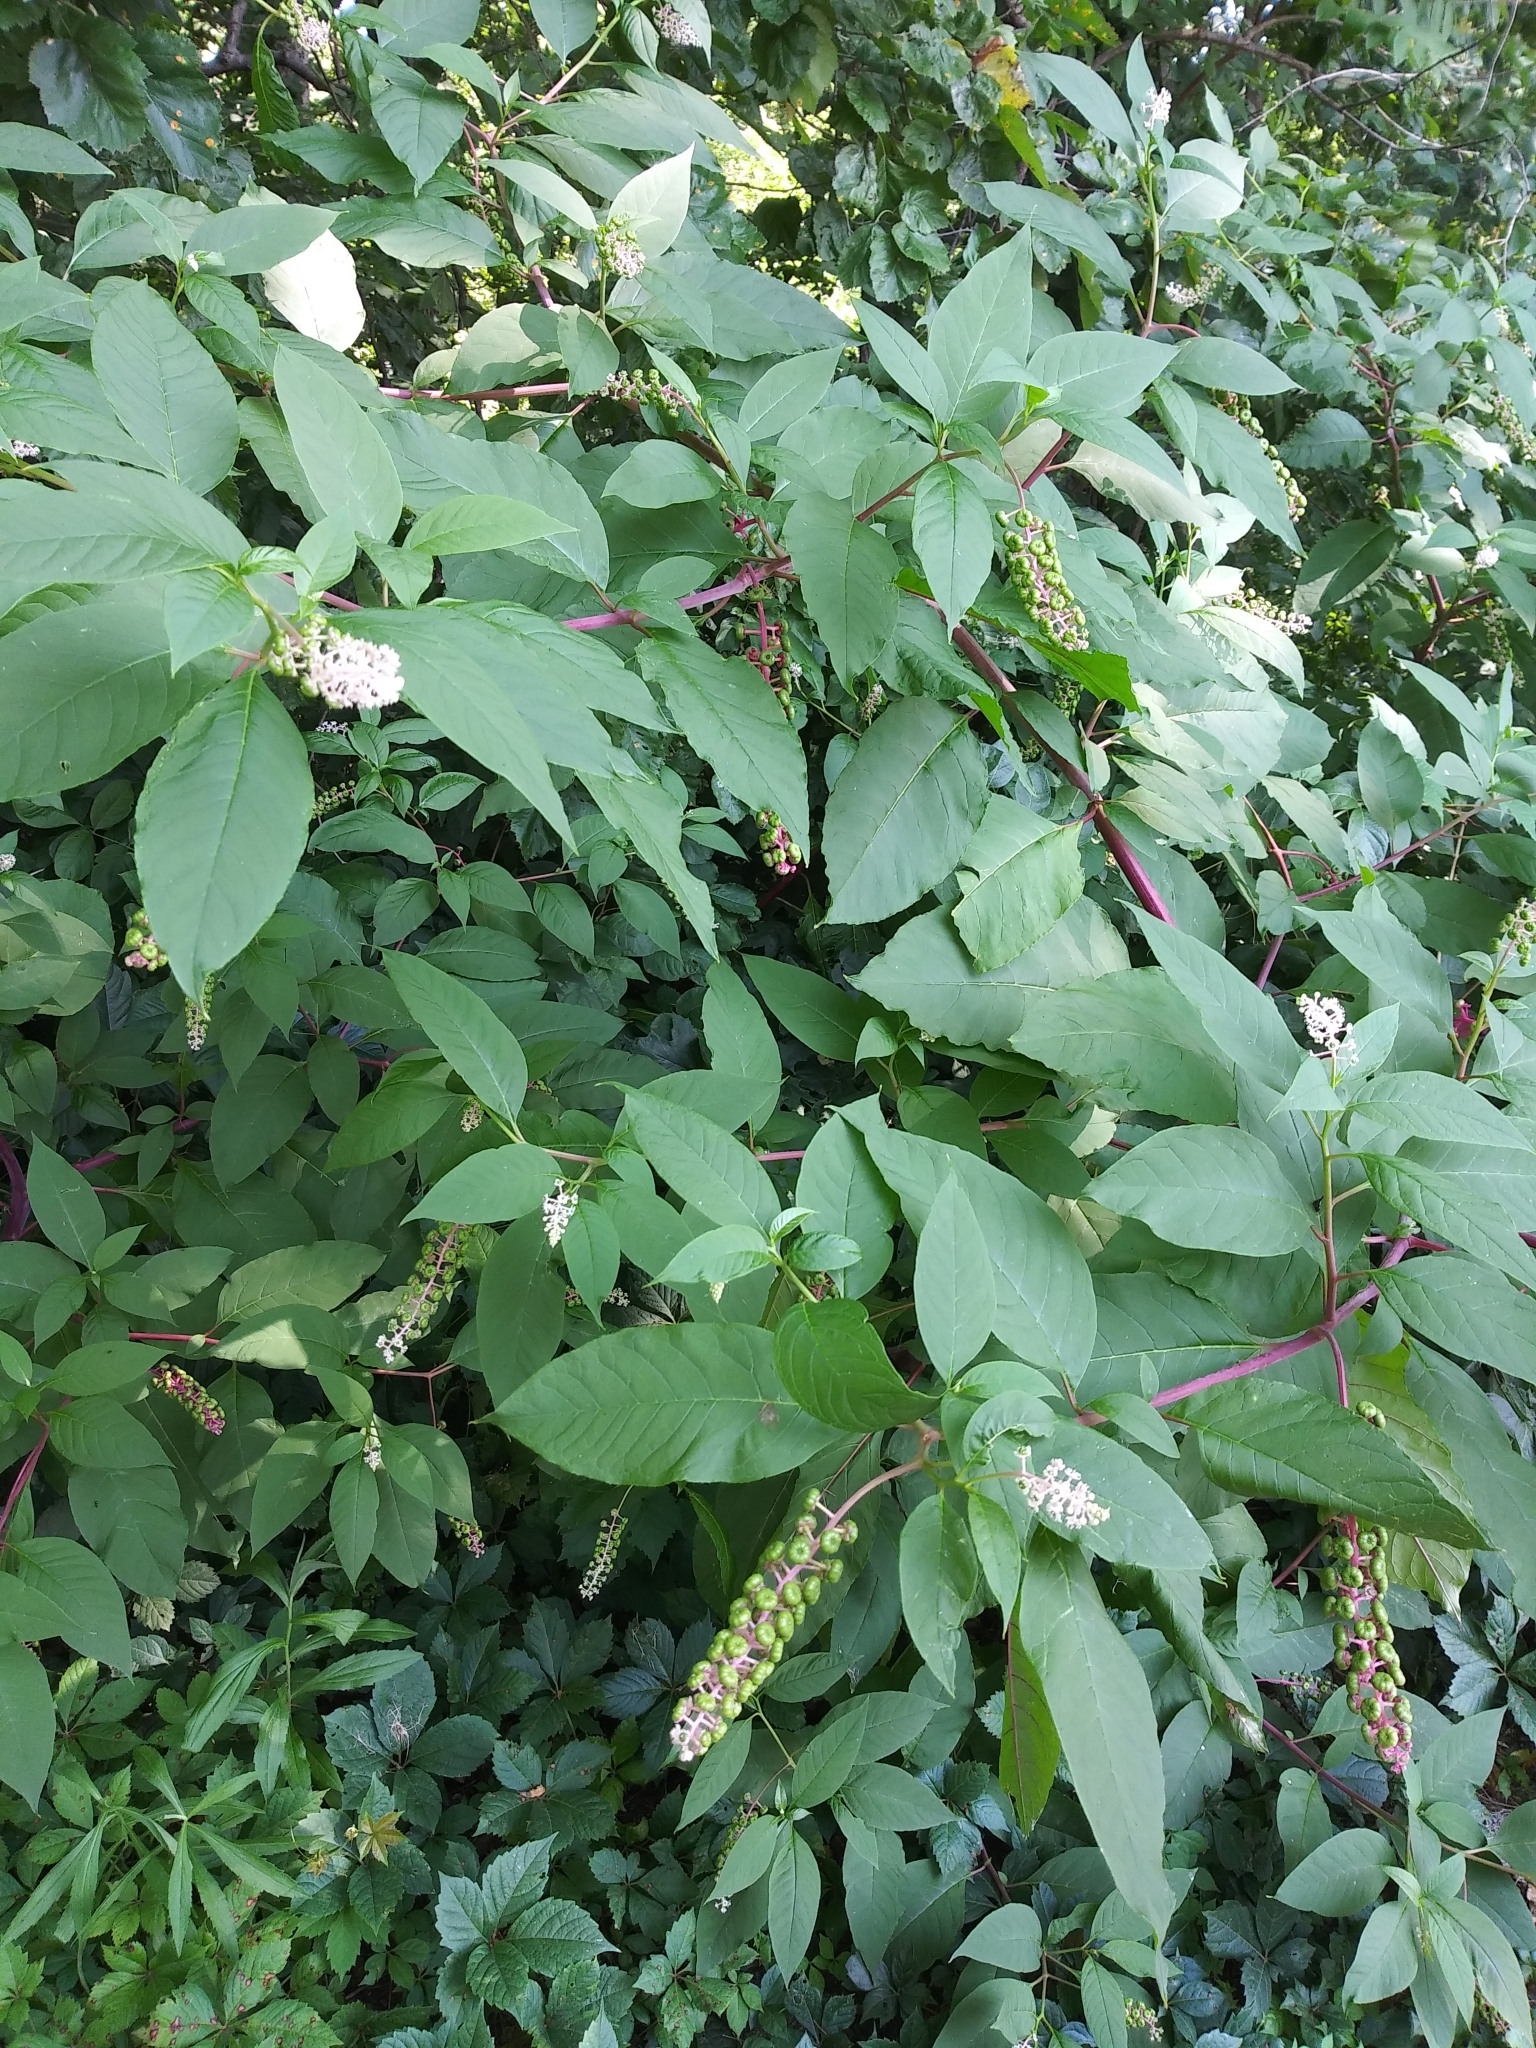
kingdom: Plantae
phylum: Tracheophyta
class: Magnoliopsida
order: Caryophyllales
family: Phytolaccaceae
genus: Phytolacca
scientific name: Phytolacca americana
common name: American pokeweed
